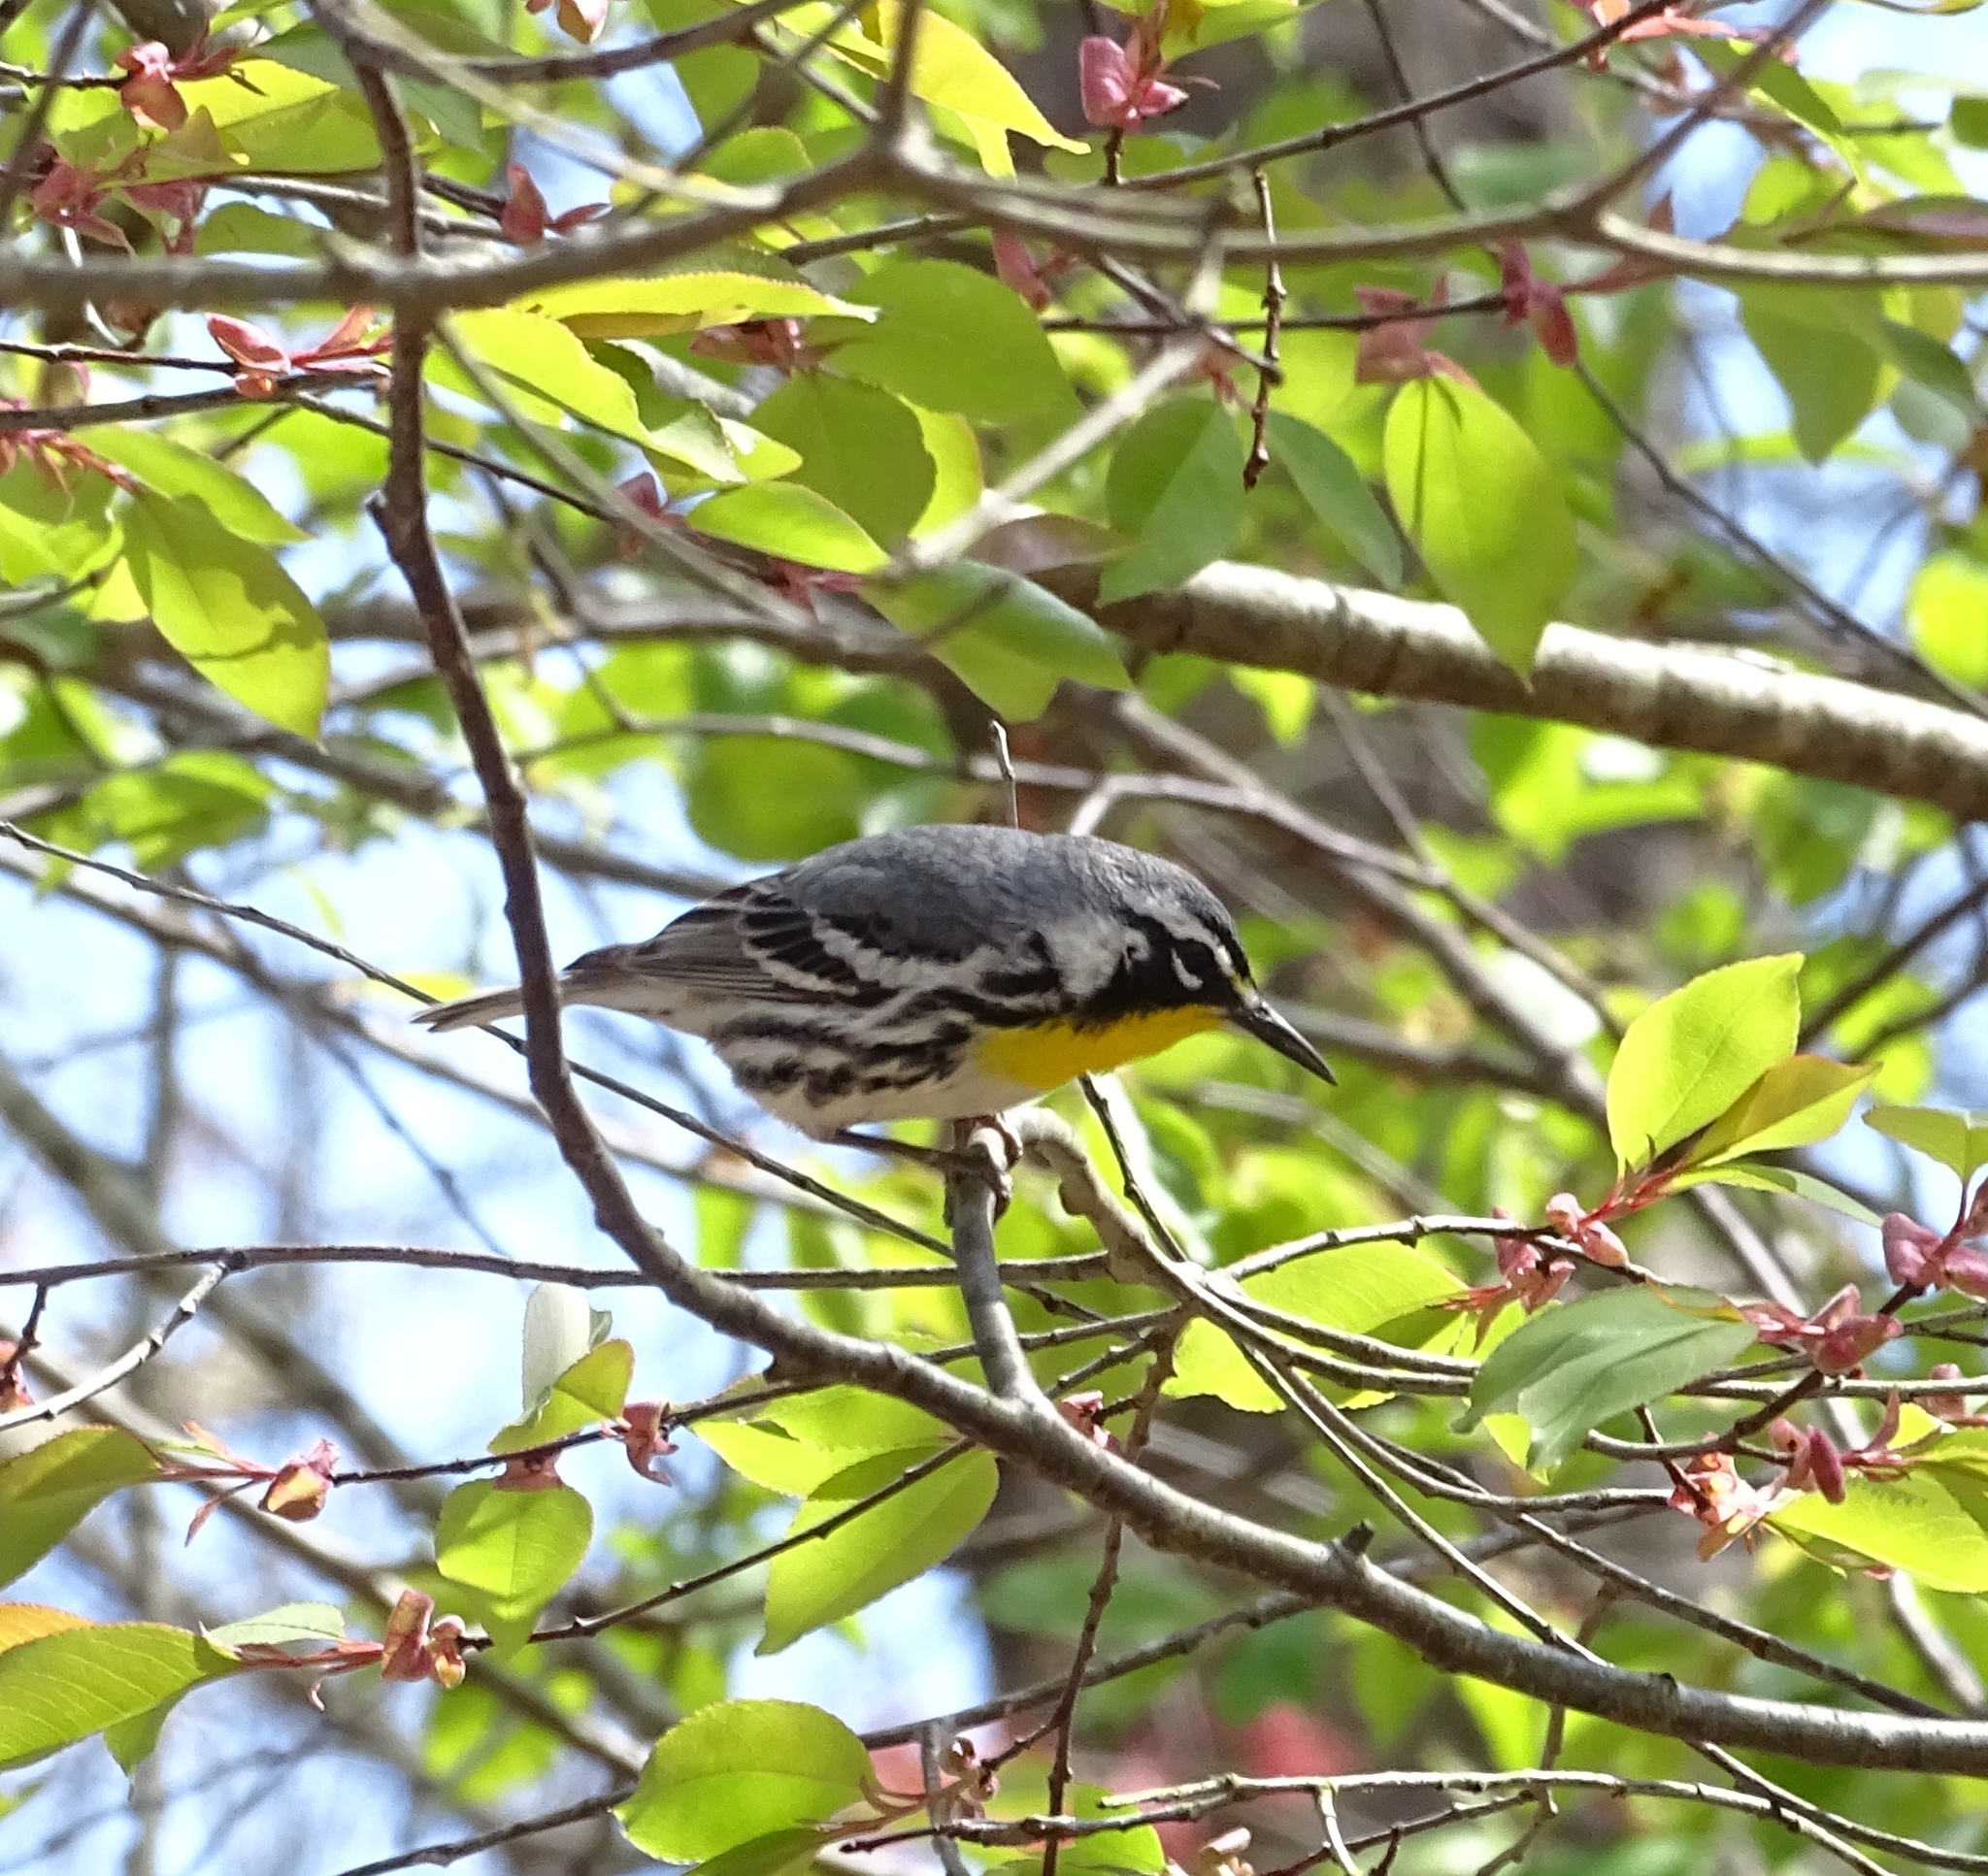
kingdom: Animalia
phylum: Chordata
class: Aves
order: Passeriformes
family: Parulidae
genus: Setophaga
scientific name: Setophaga dominica
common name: Yellow-throated warbler
